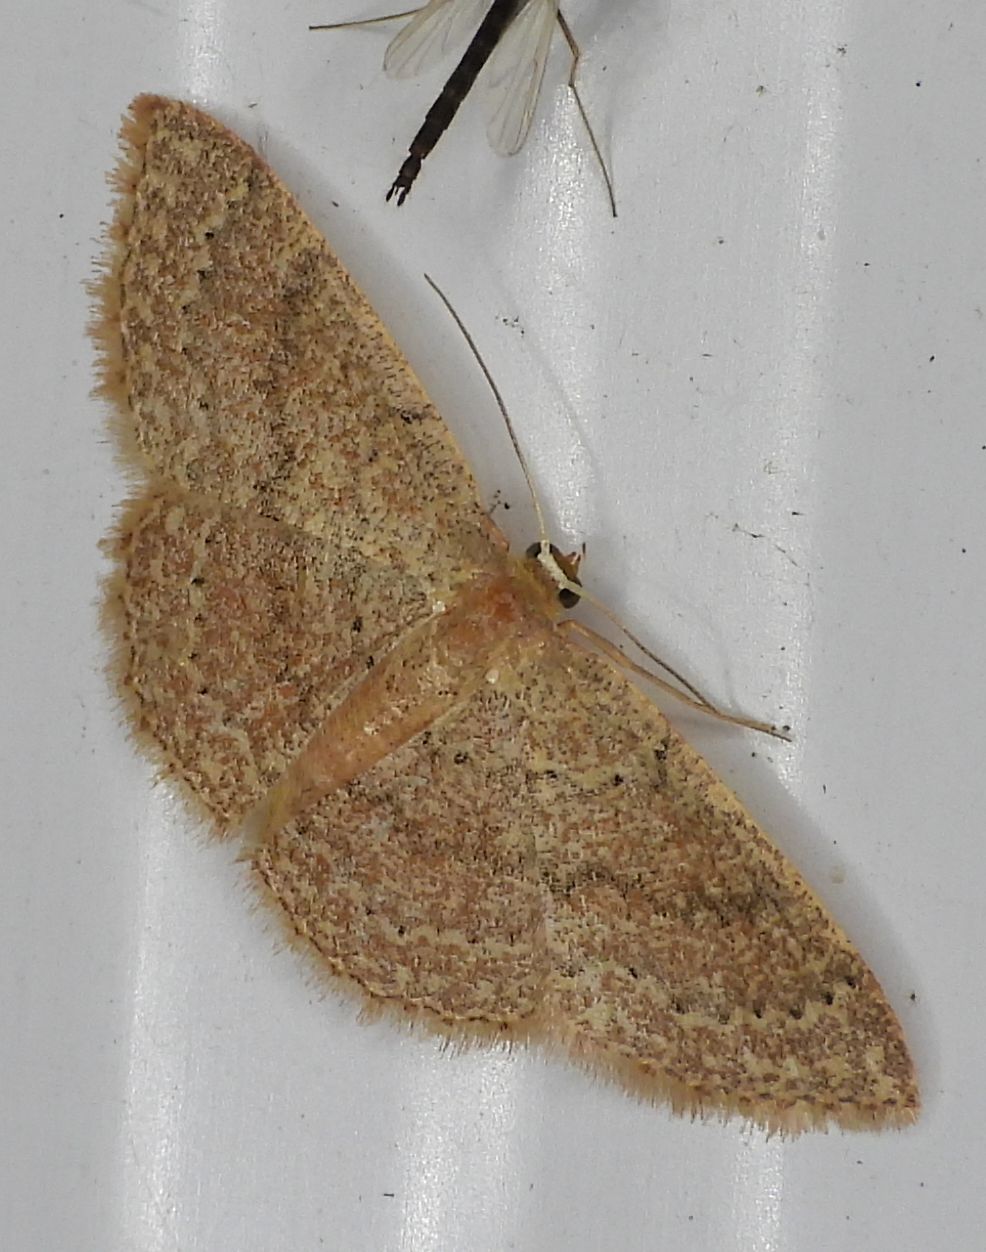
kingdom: Animalia
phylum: Arthropoda
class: Insecta
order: Lepidoptera
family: Geometridae
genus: Pleuroprucha
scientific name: Pleuroprucha insulsaria
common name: Common tan wave
